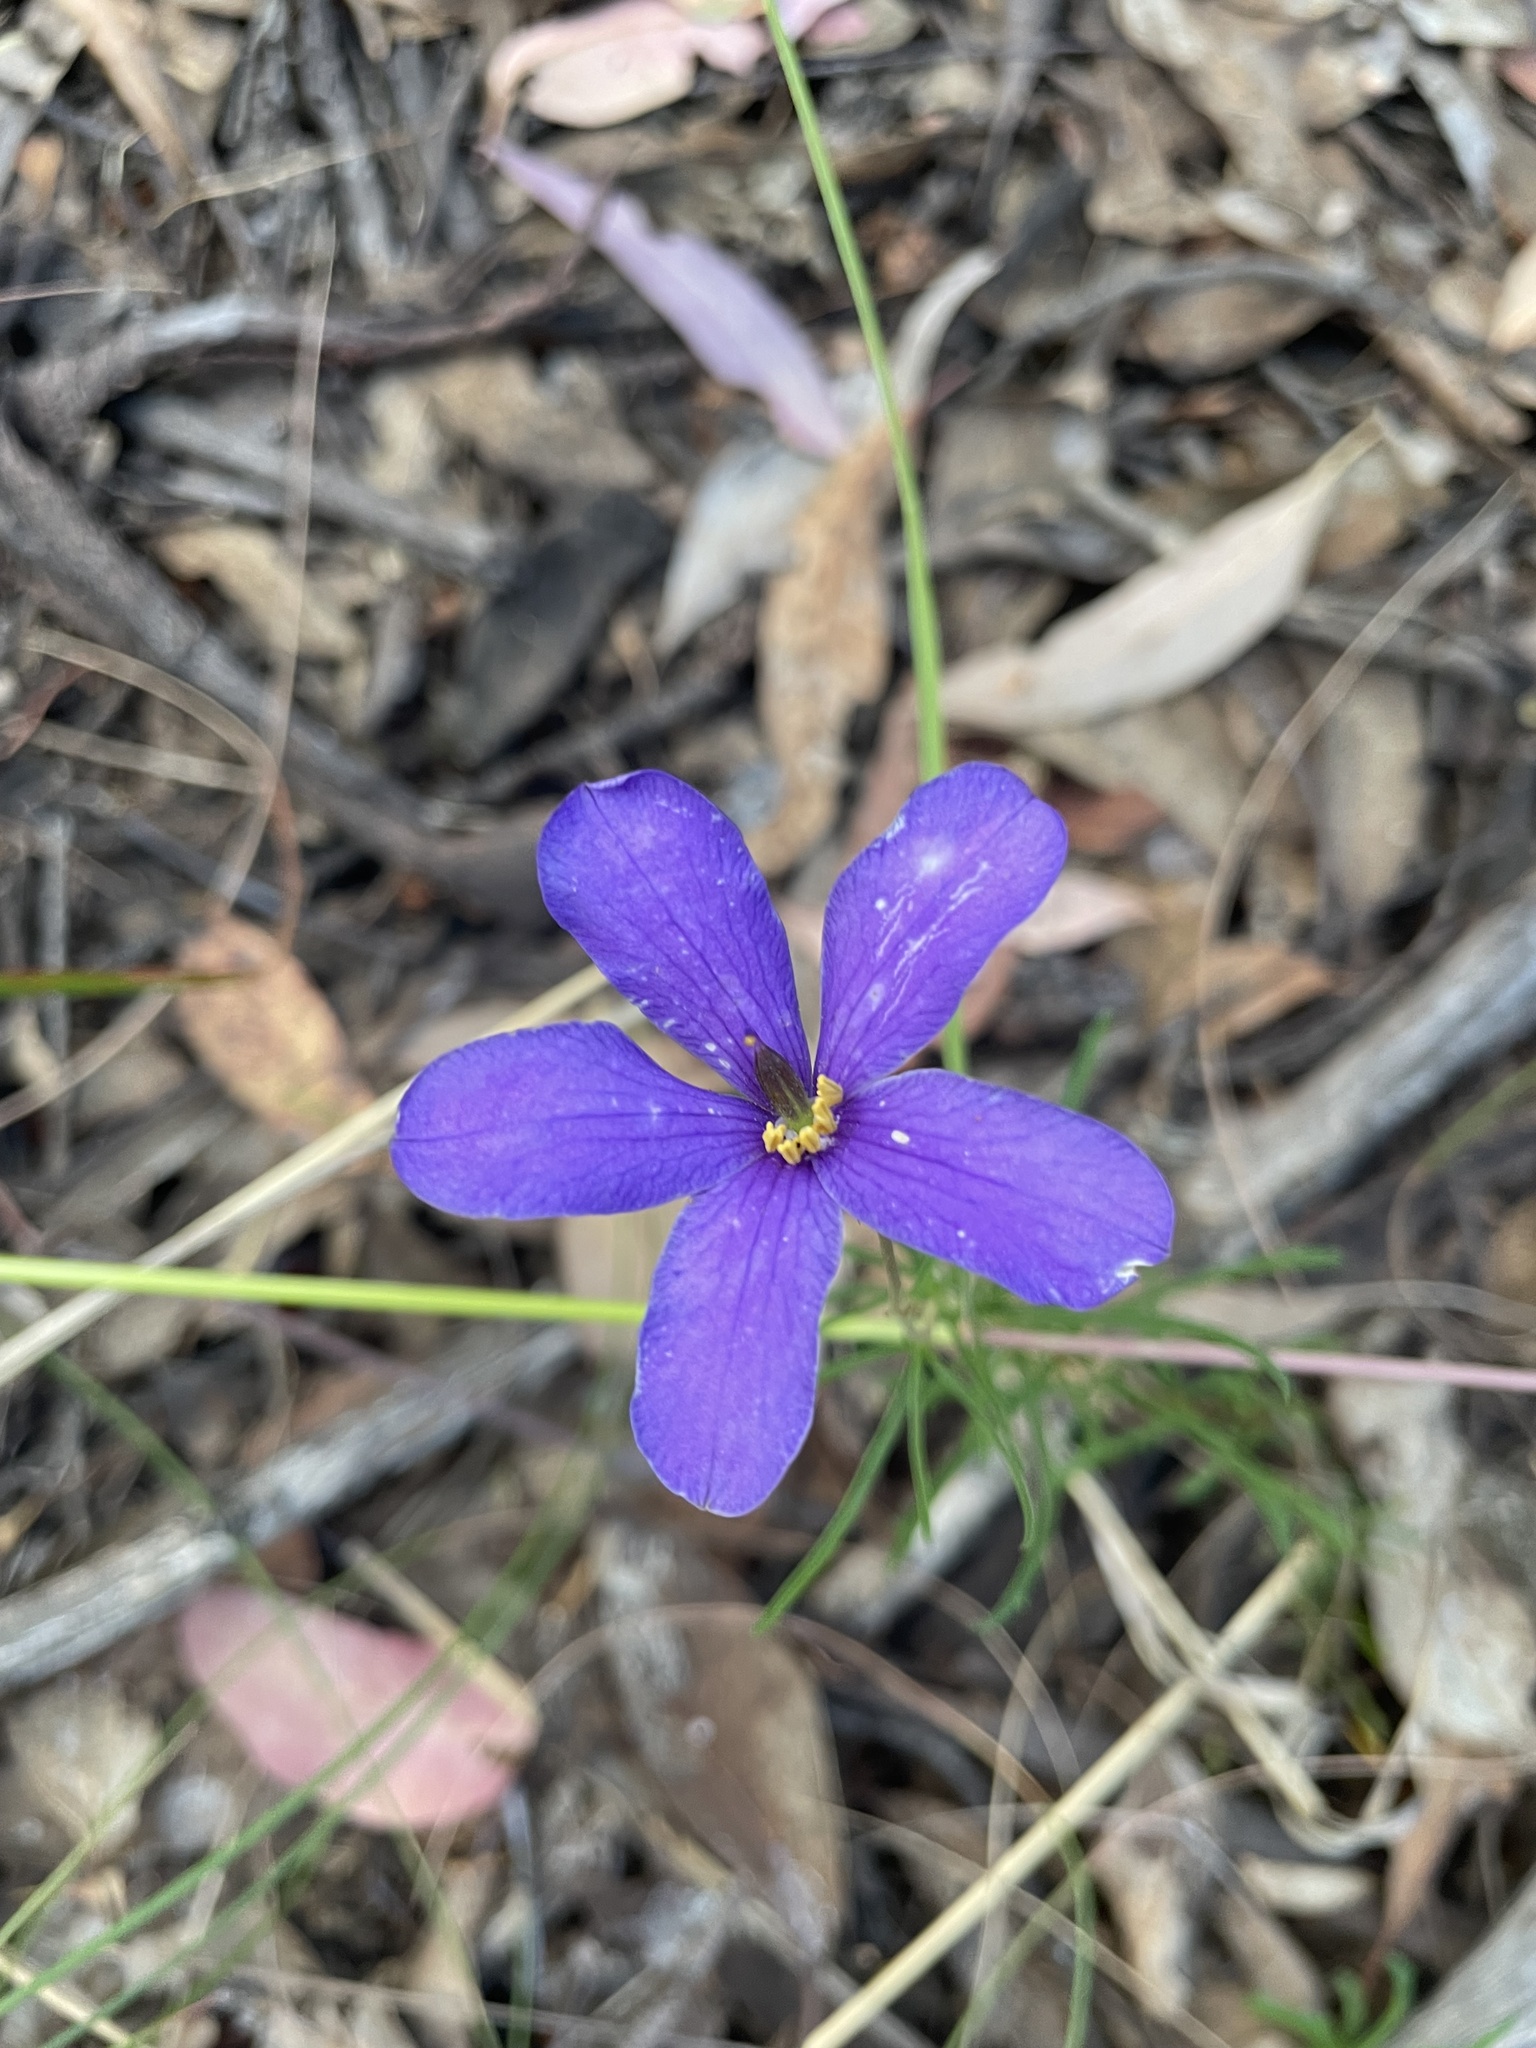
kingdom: Plantae
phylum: Tracheophyta
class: Magnoliopsida
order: Apiales
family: Pittosporaceae
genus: Cheiranthera
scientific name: Cheiranthera linearis
